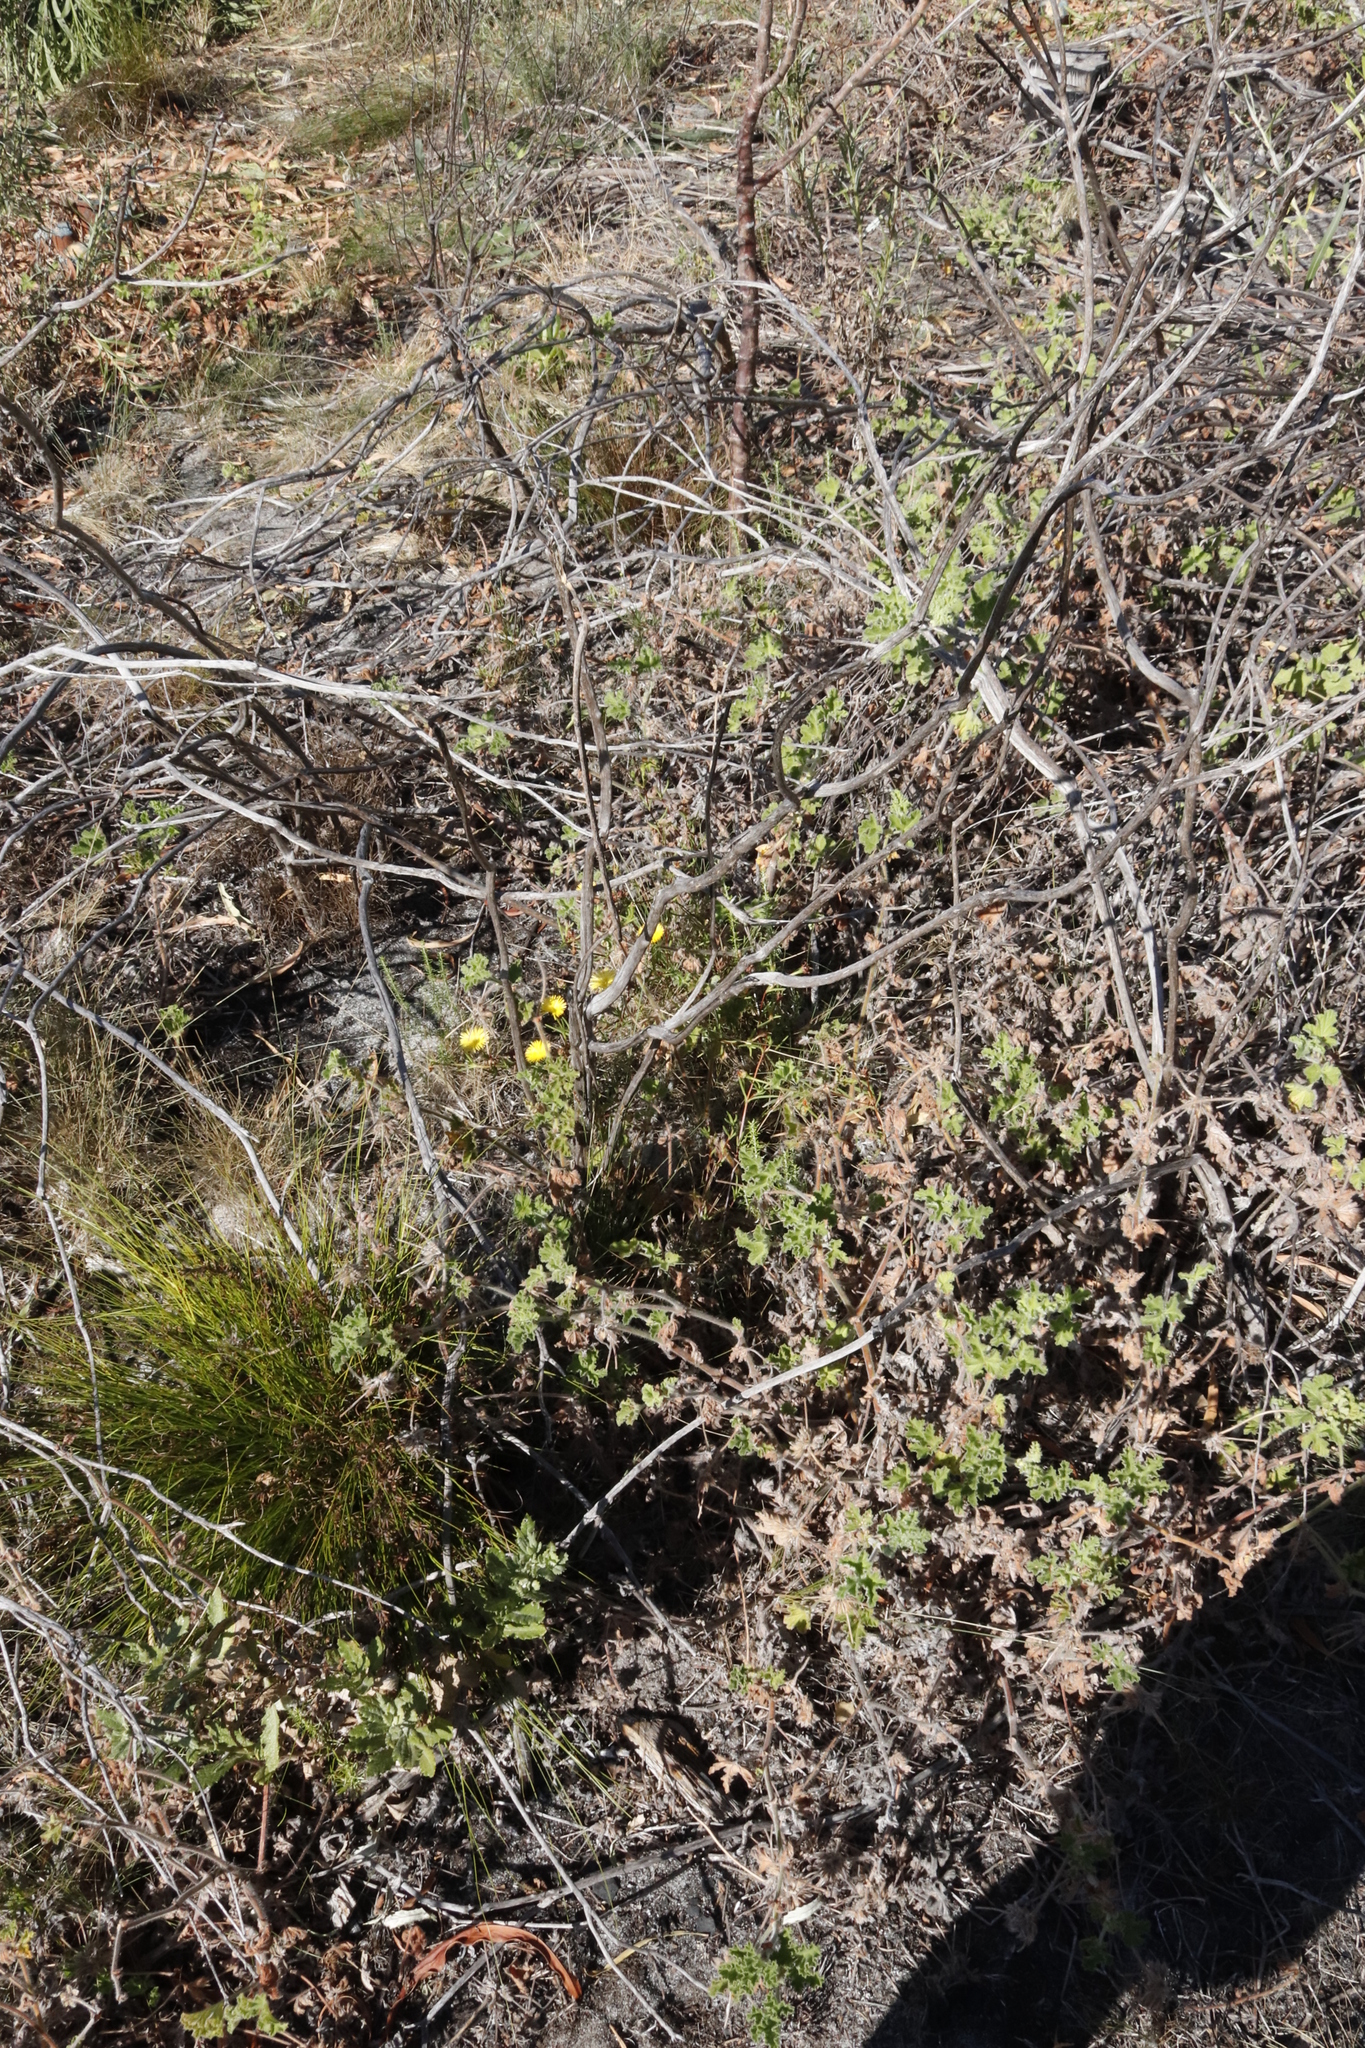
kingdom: Plantae
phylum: Tracheophyta
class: Magnoliopsida
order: Caryophyllales
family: Aizoaceae
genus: Lampranthus
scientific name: Lampranthus bicolor
